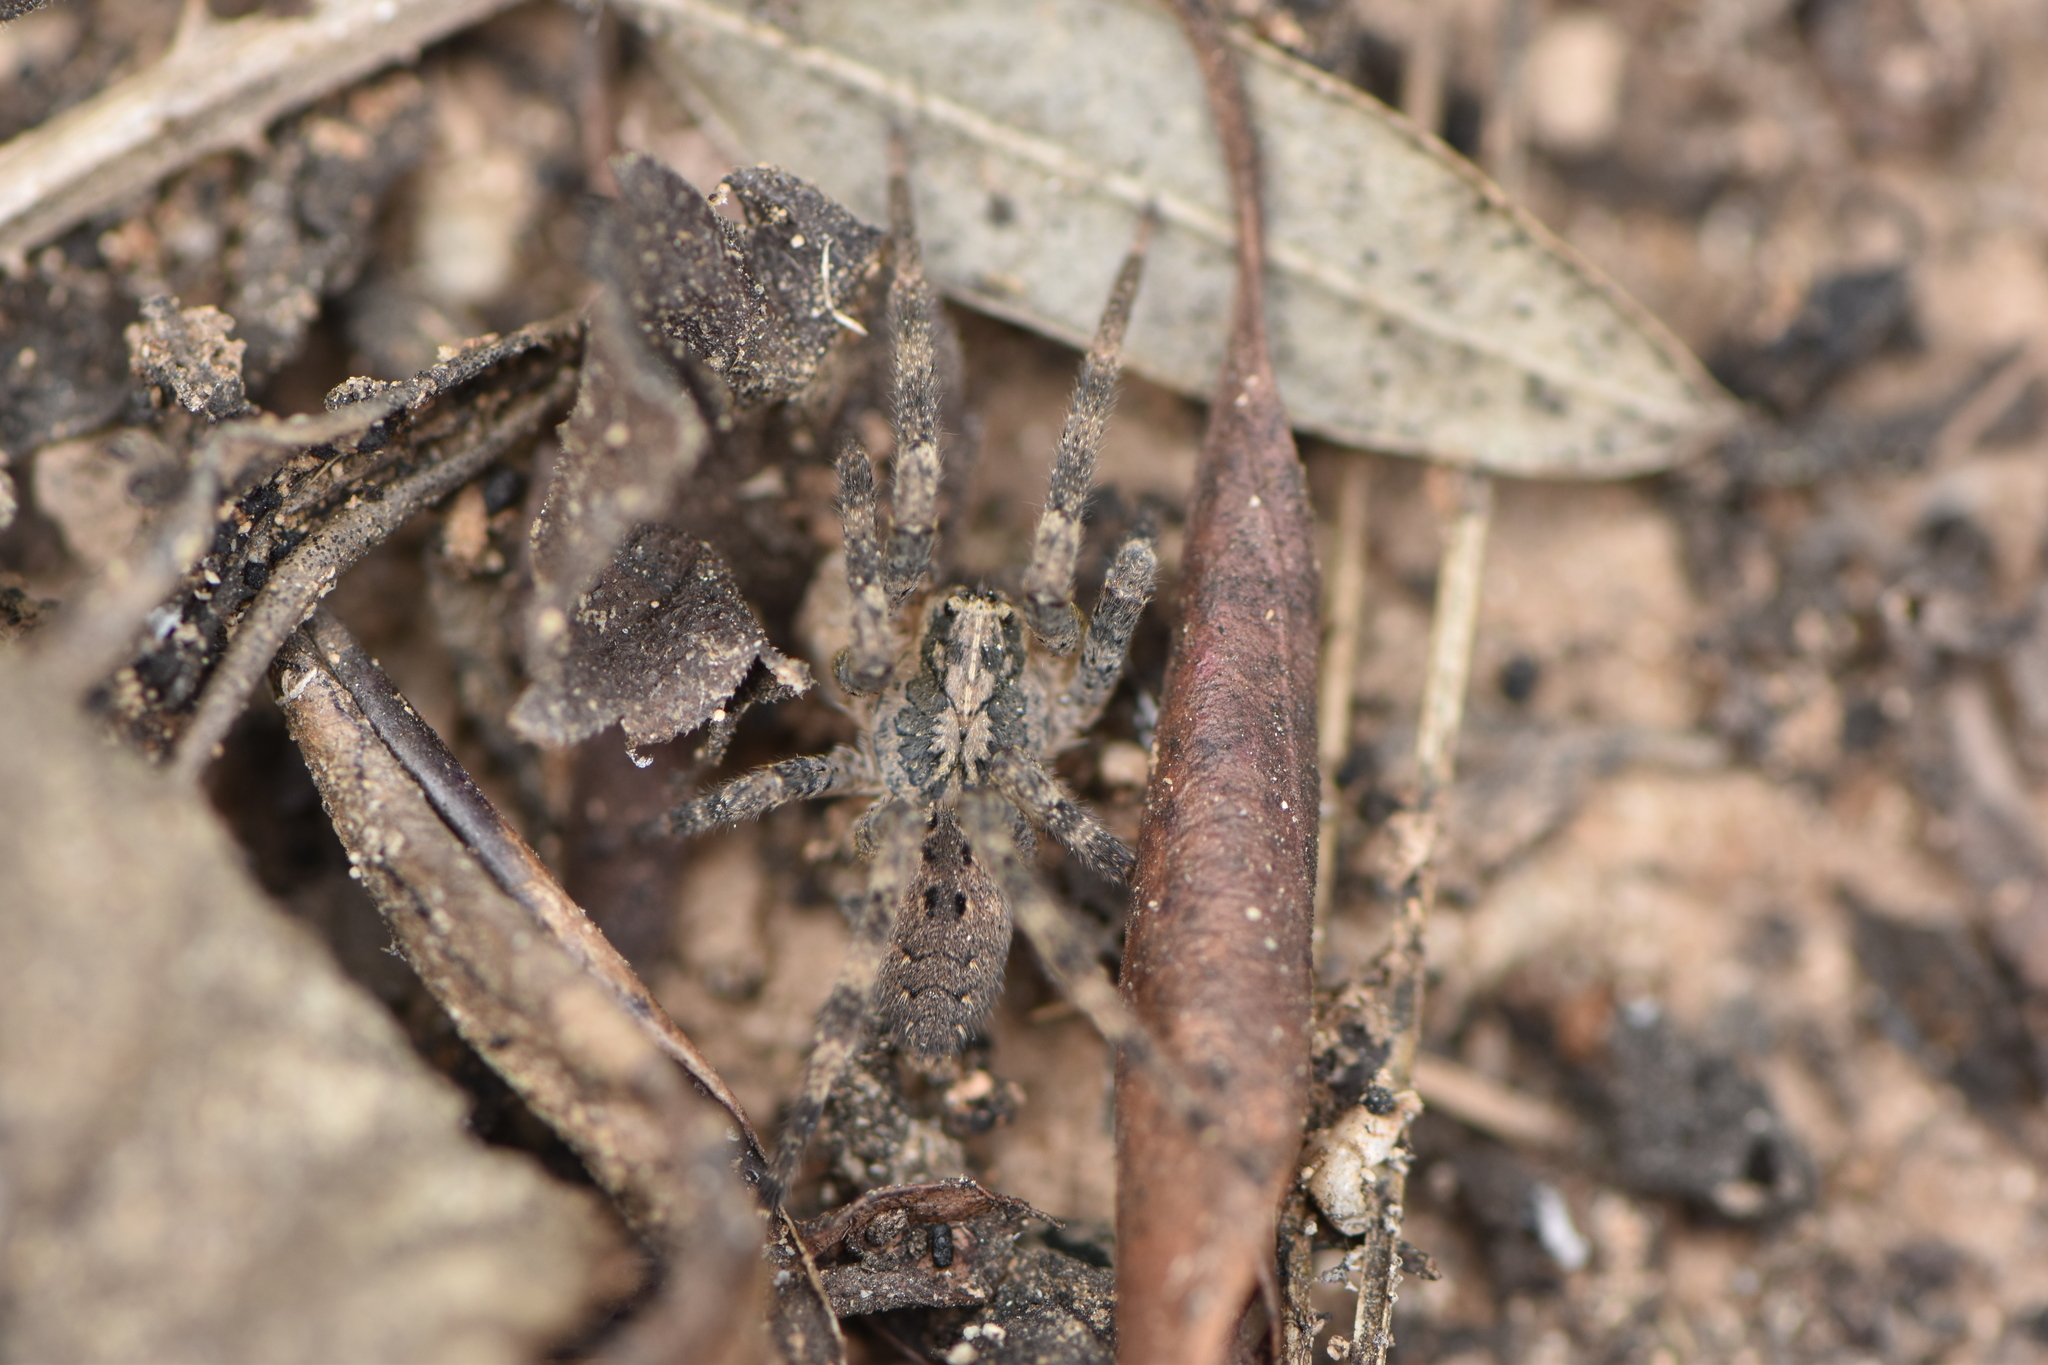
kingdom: Animalia
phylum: Arthropoda
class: Arachnida
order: Araneae
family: Zoropsidae
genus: Zoropsis
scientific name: Zoropsis spinimana
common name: Zoropsid spider
